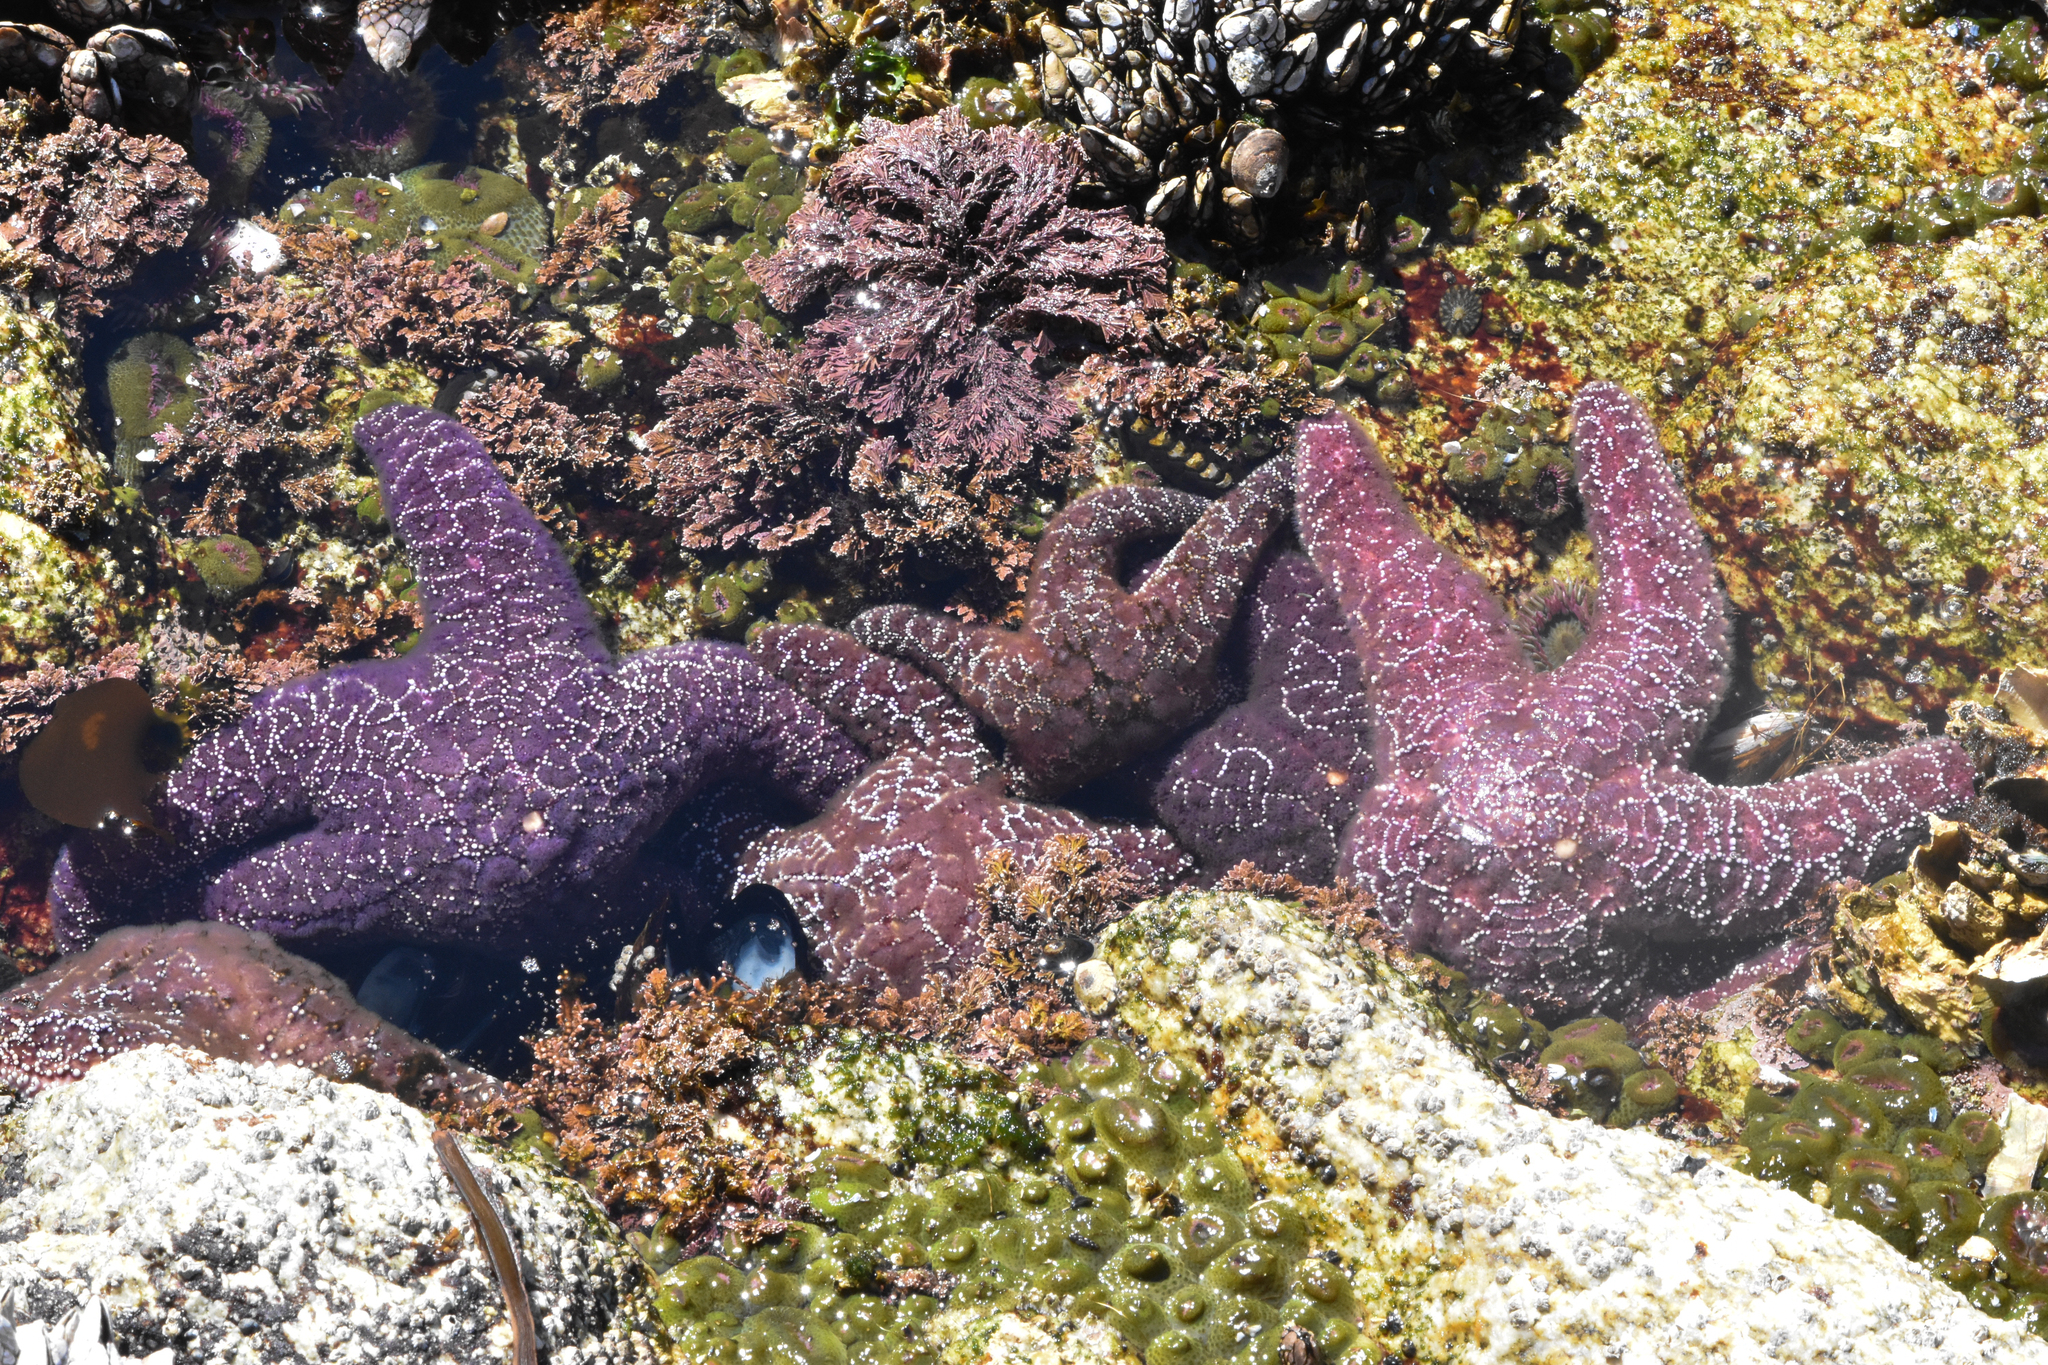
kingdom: Animalia
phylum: Echinodermata
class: Asteroidea
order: Forcipulatida
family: Asteriidae
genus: Pisaster
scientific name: Pisaster ochraceus
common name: Ochre stars
